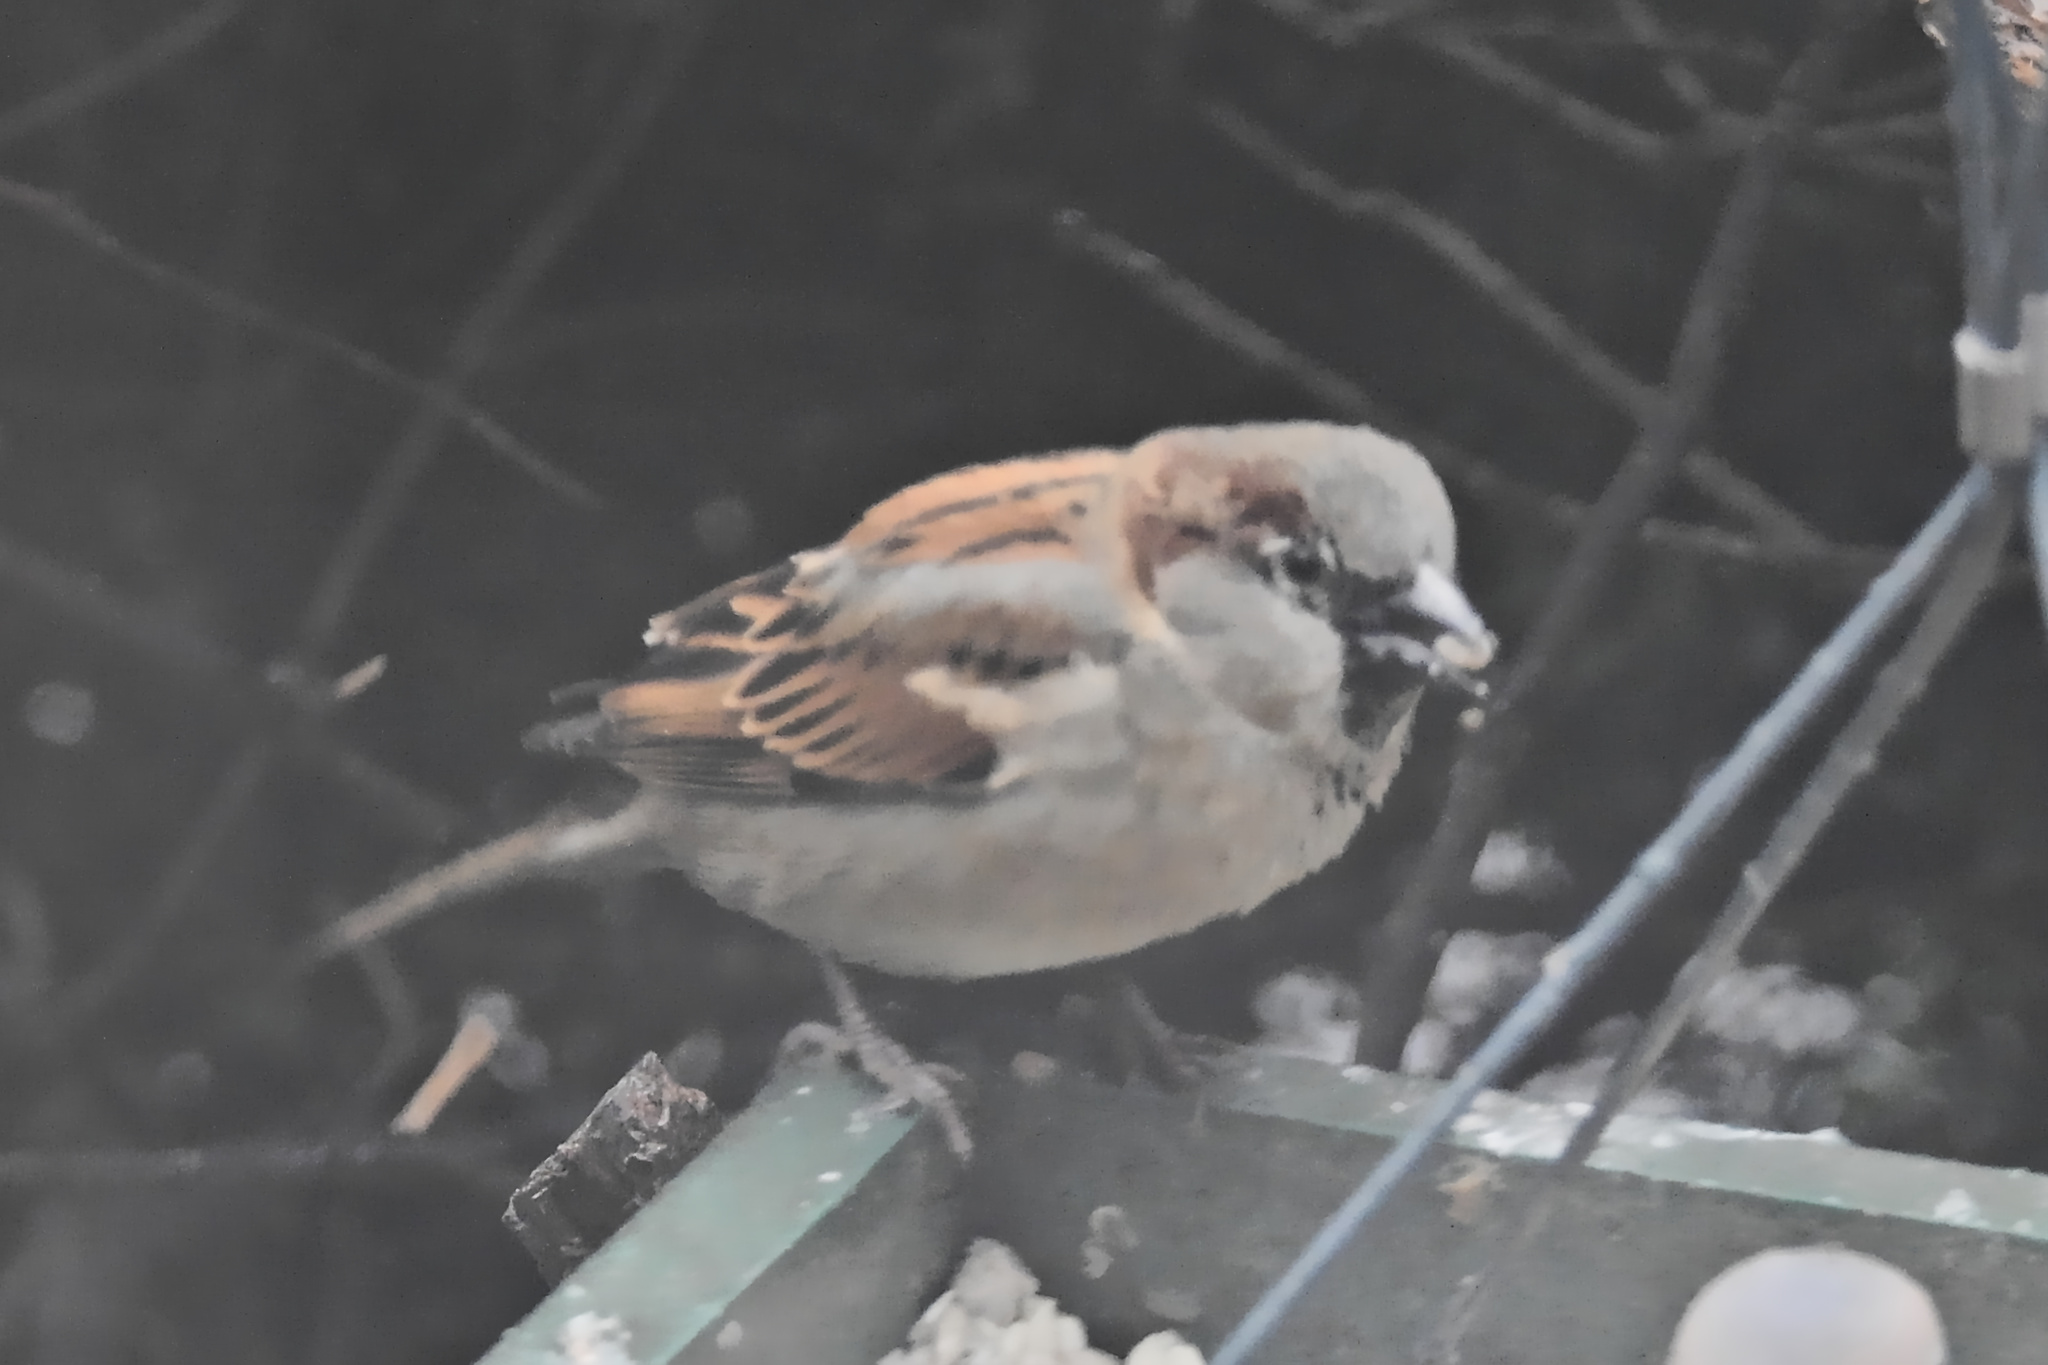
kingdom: Animalia
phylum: Chordata
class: Aves
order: Passeriformes
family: Passeridae
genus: Passer
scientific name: Passer domesticus
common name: House sparrow
